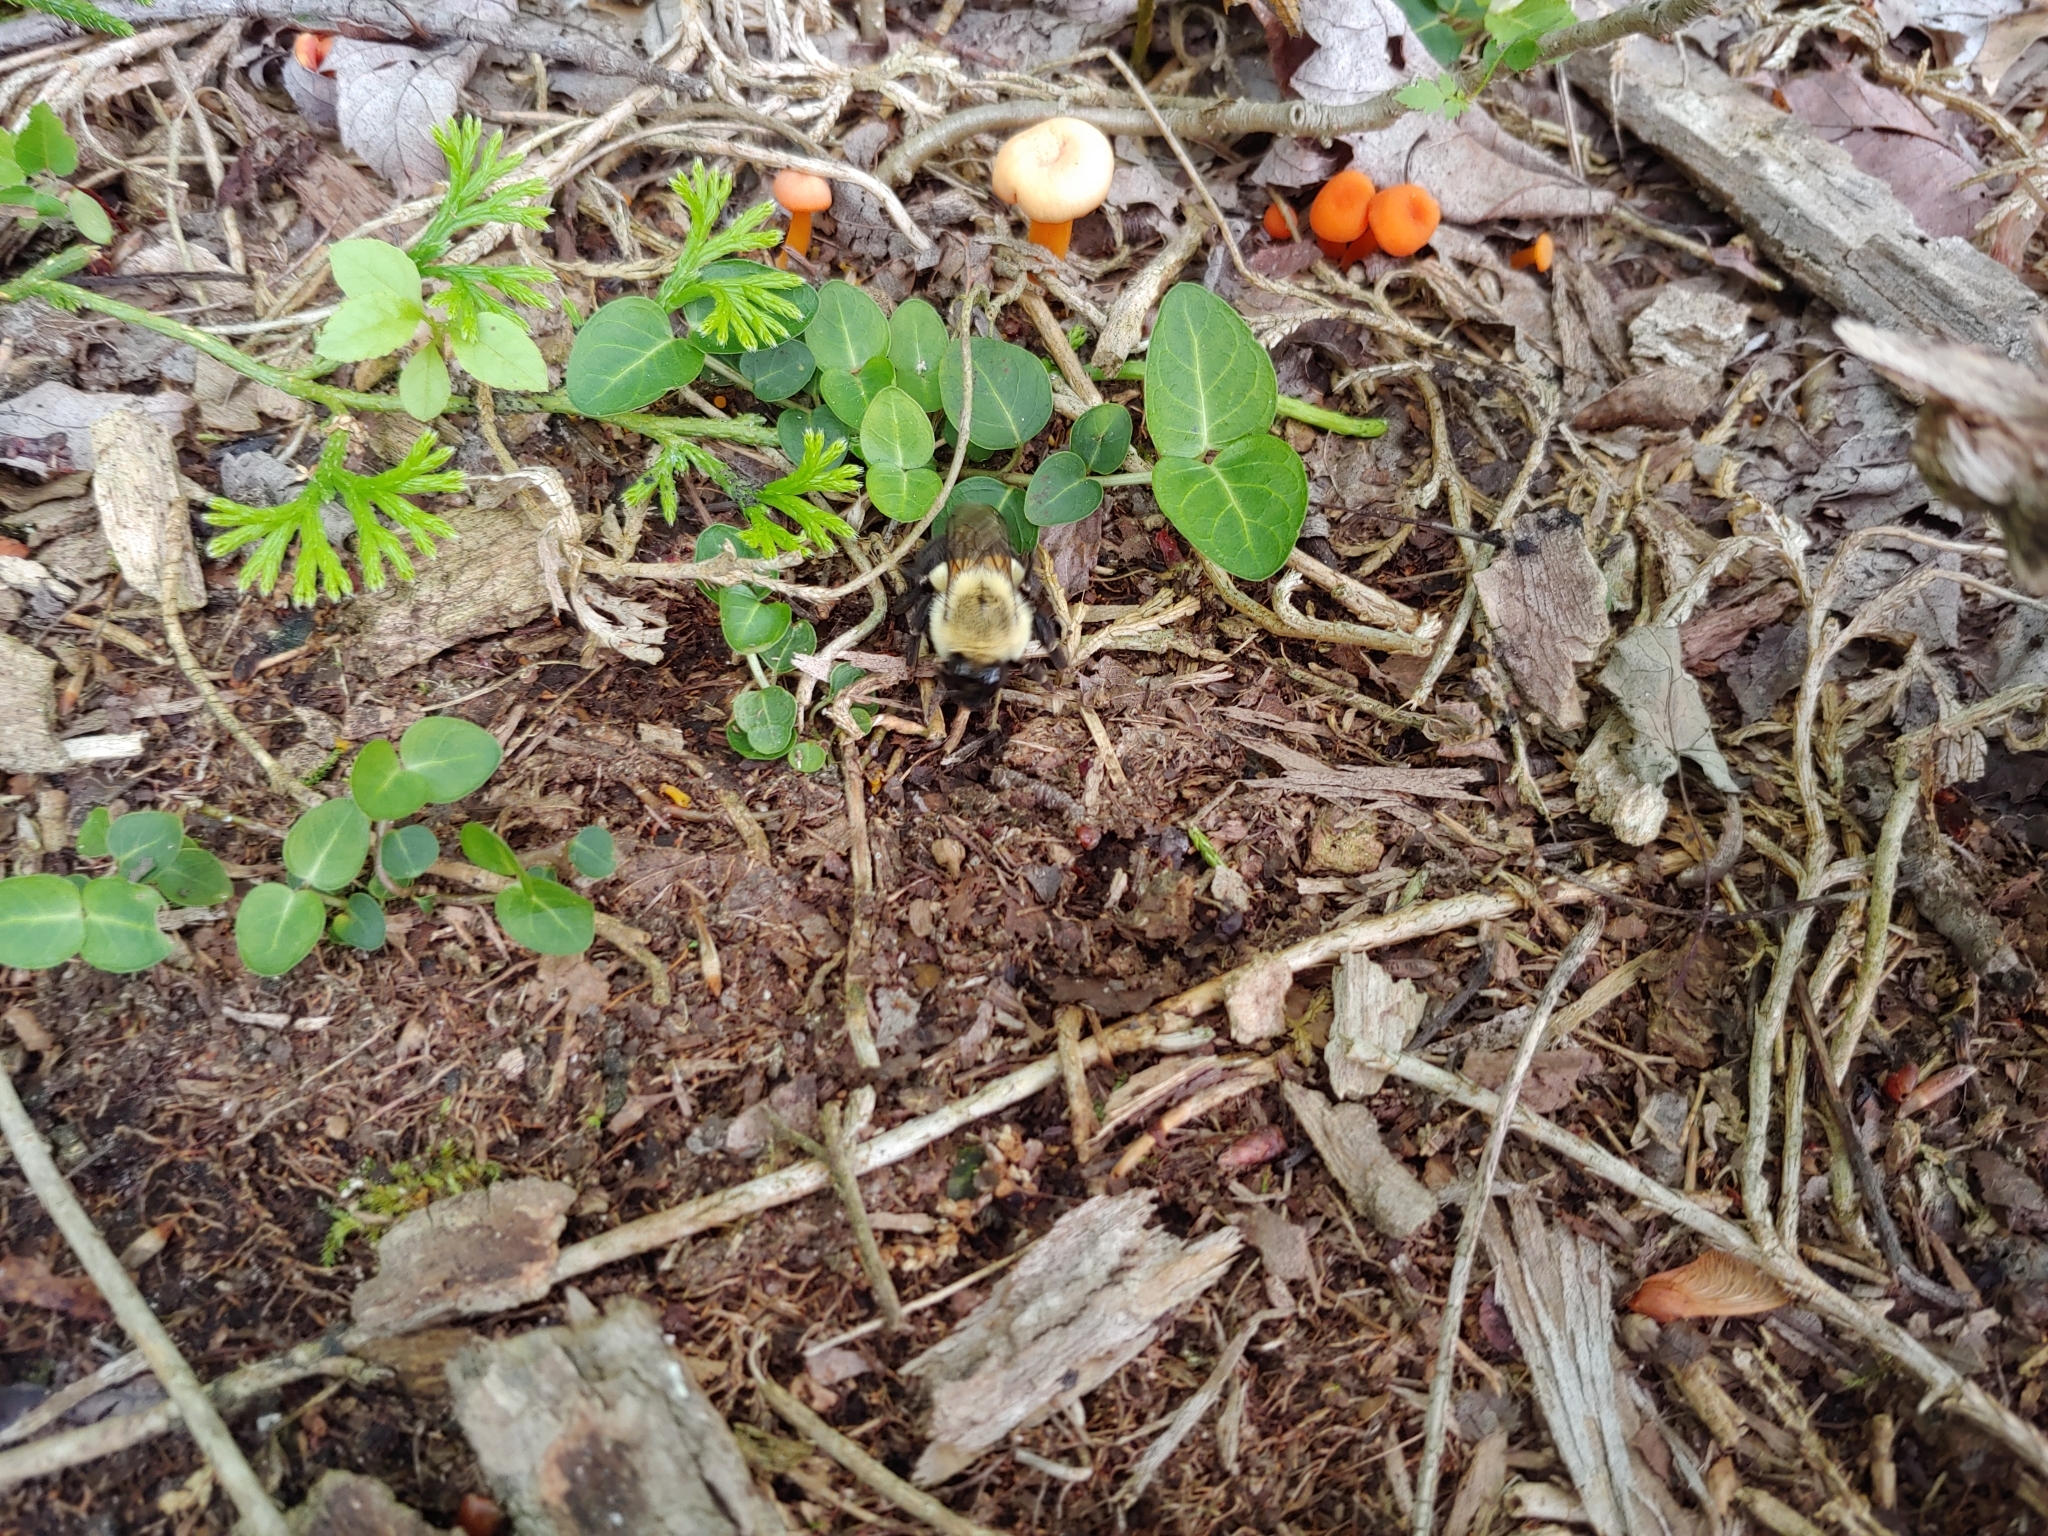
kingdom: Animalia
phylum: Arthropoda
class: Insecta
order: Hymenoptera
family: Apidae
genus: Bombus
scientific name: Bombus impatiens
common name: Common eastern bumble bee
